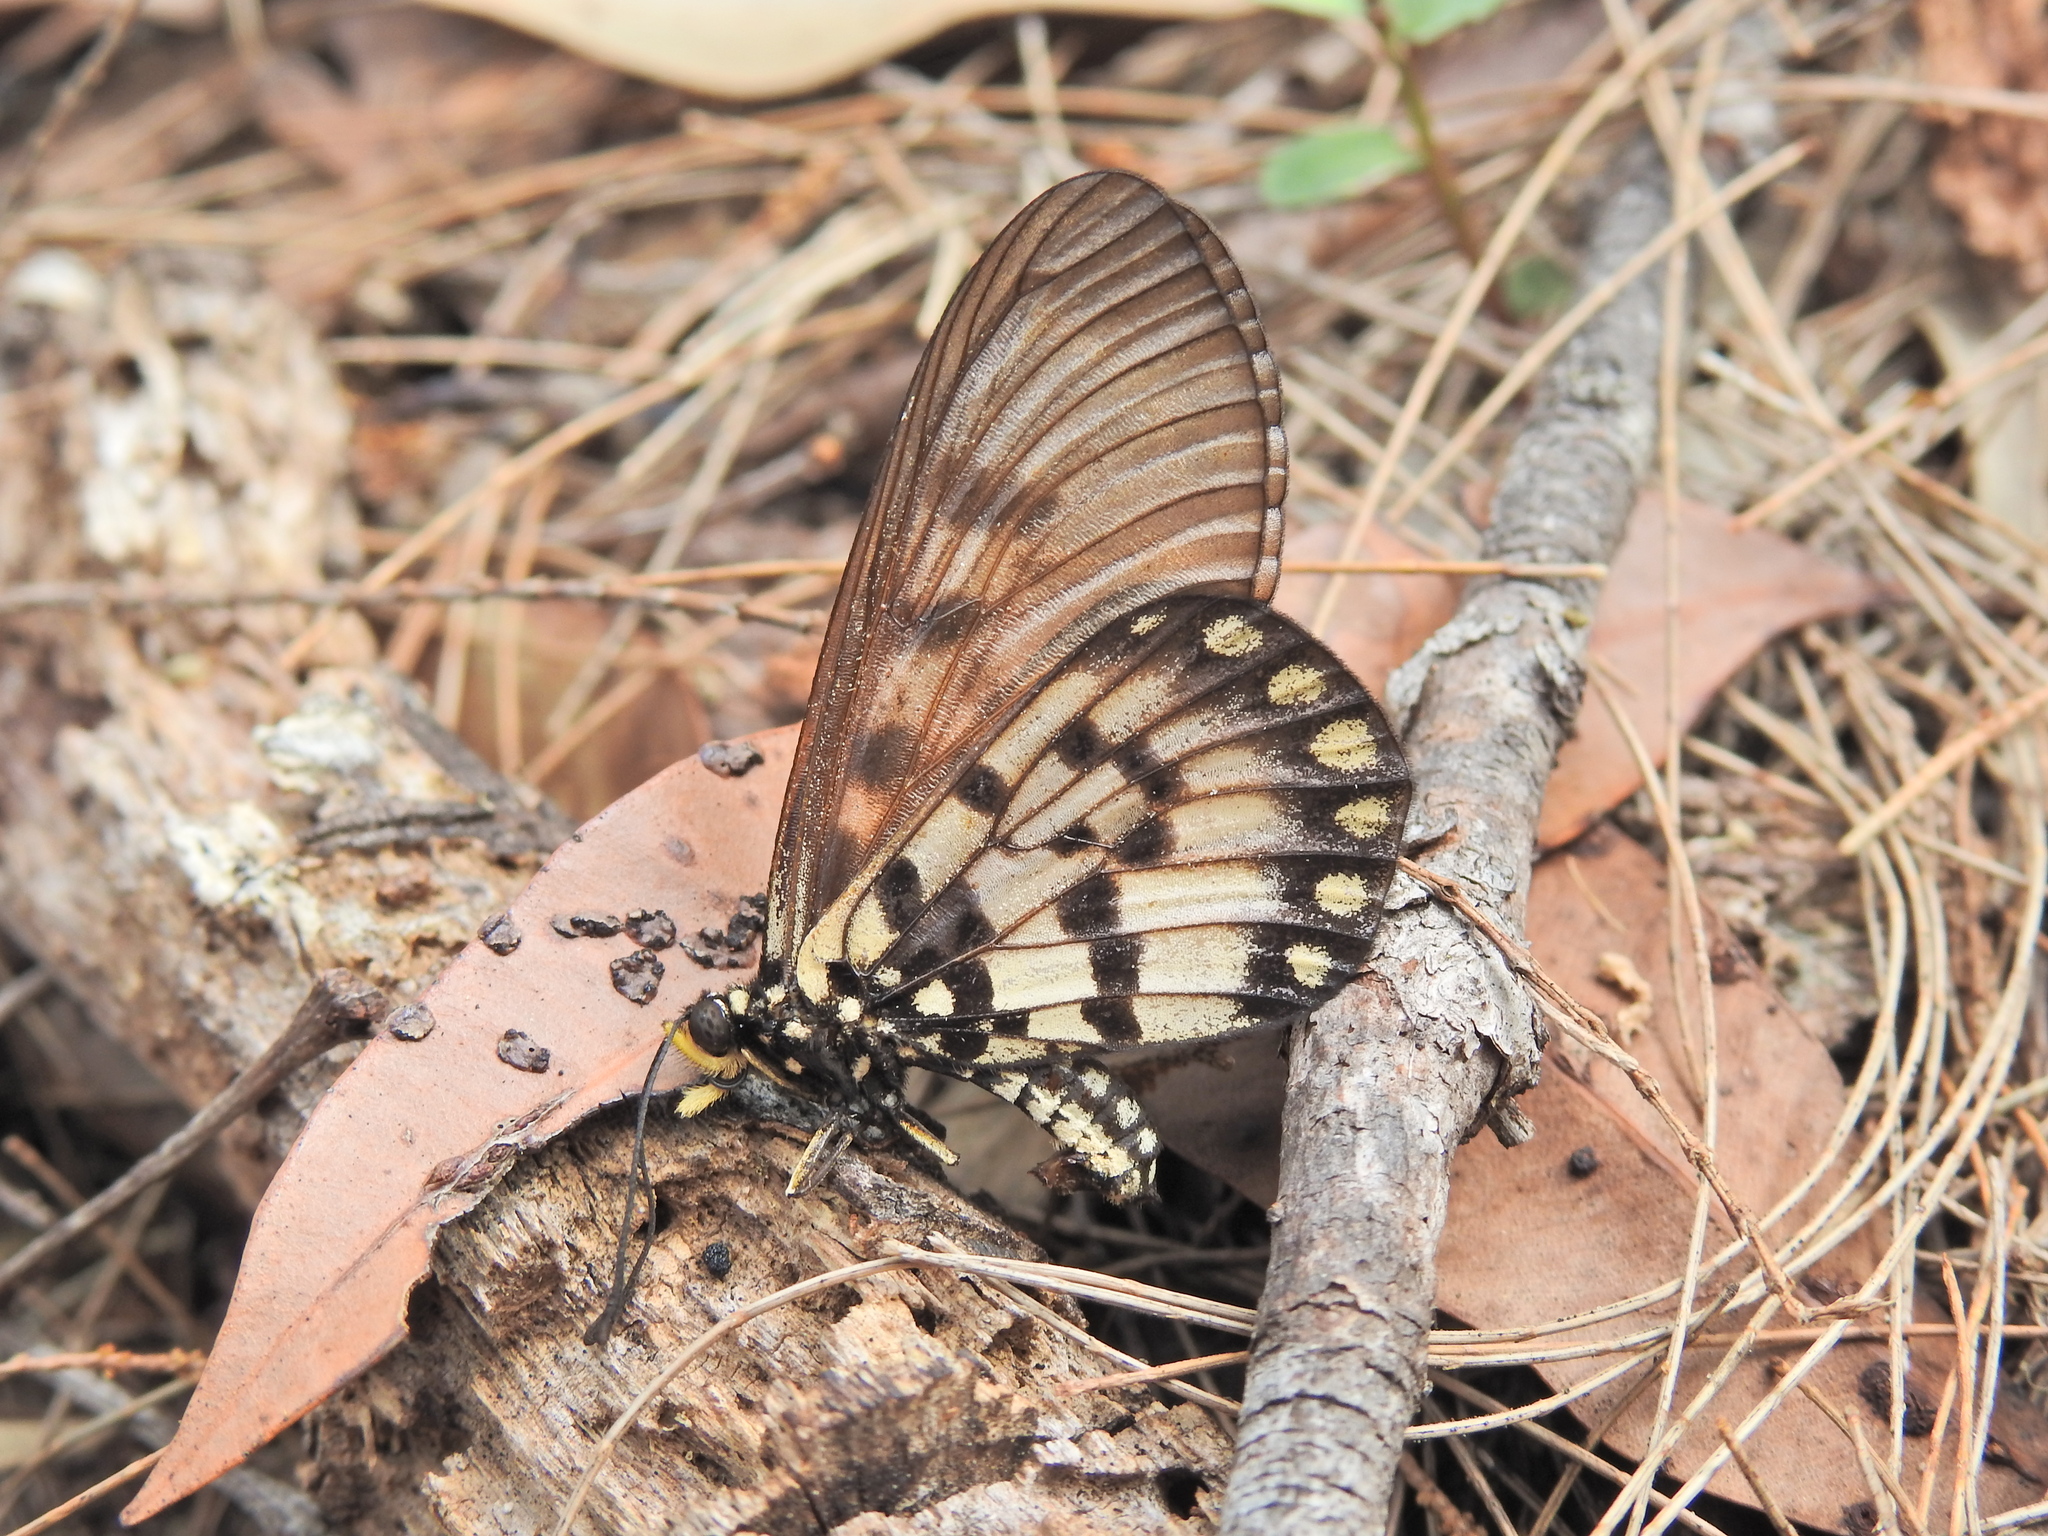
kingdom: Animalia
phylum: Arthropoda
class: Insecta
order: Lepidoptera
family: Nymphalidae
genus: Acraea
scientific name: Acraea andromacha
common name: Glasswing
